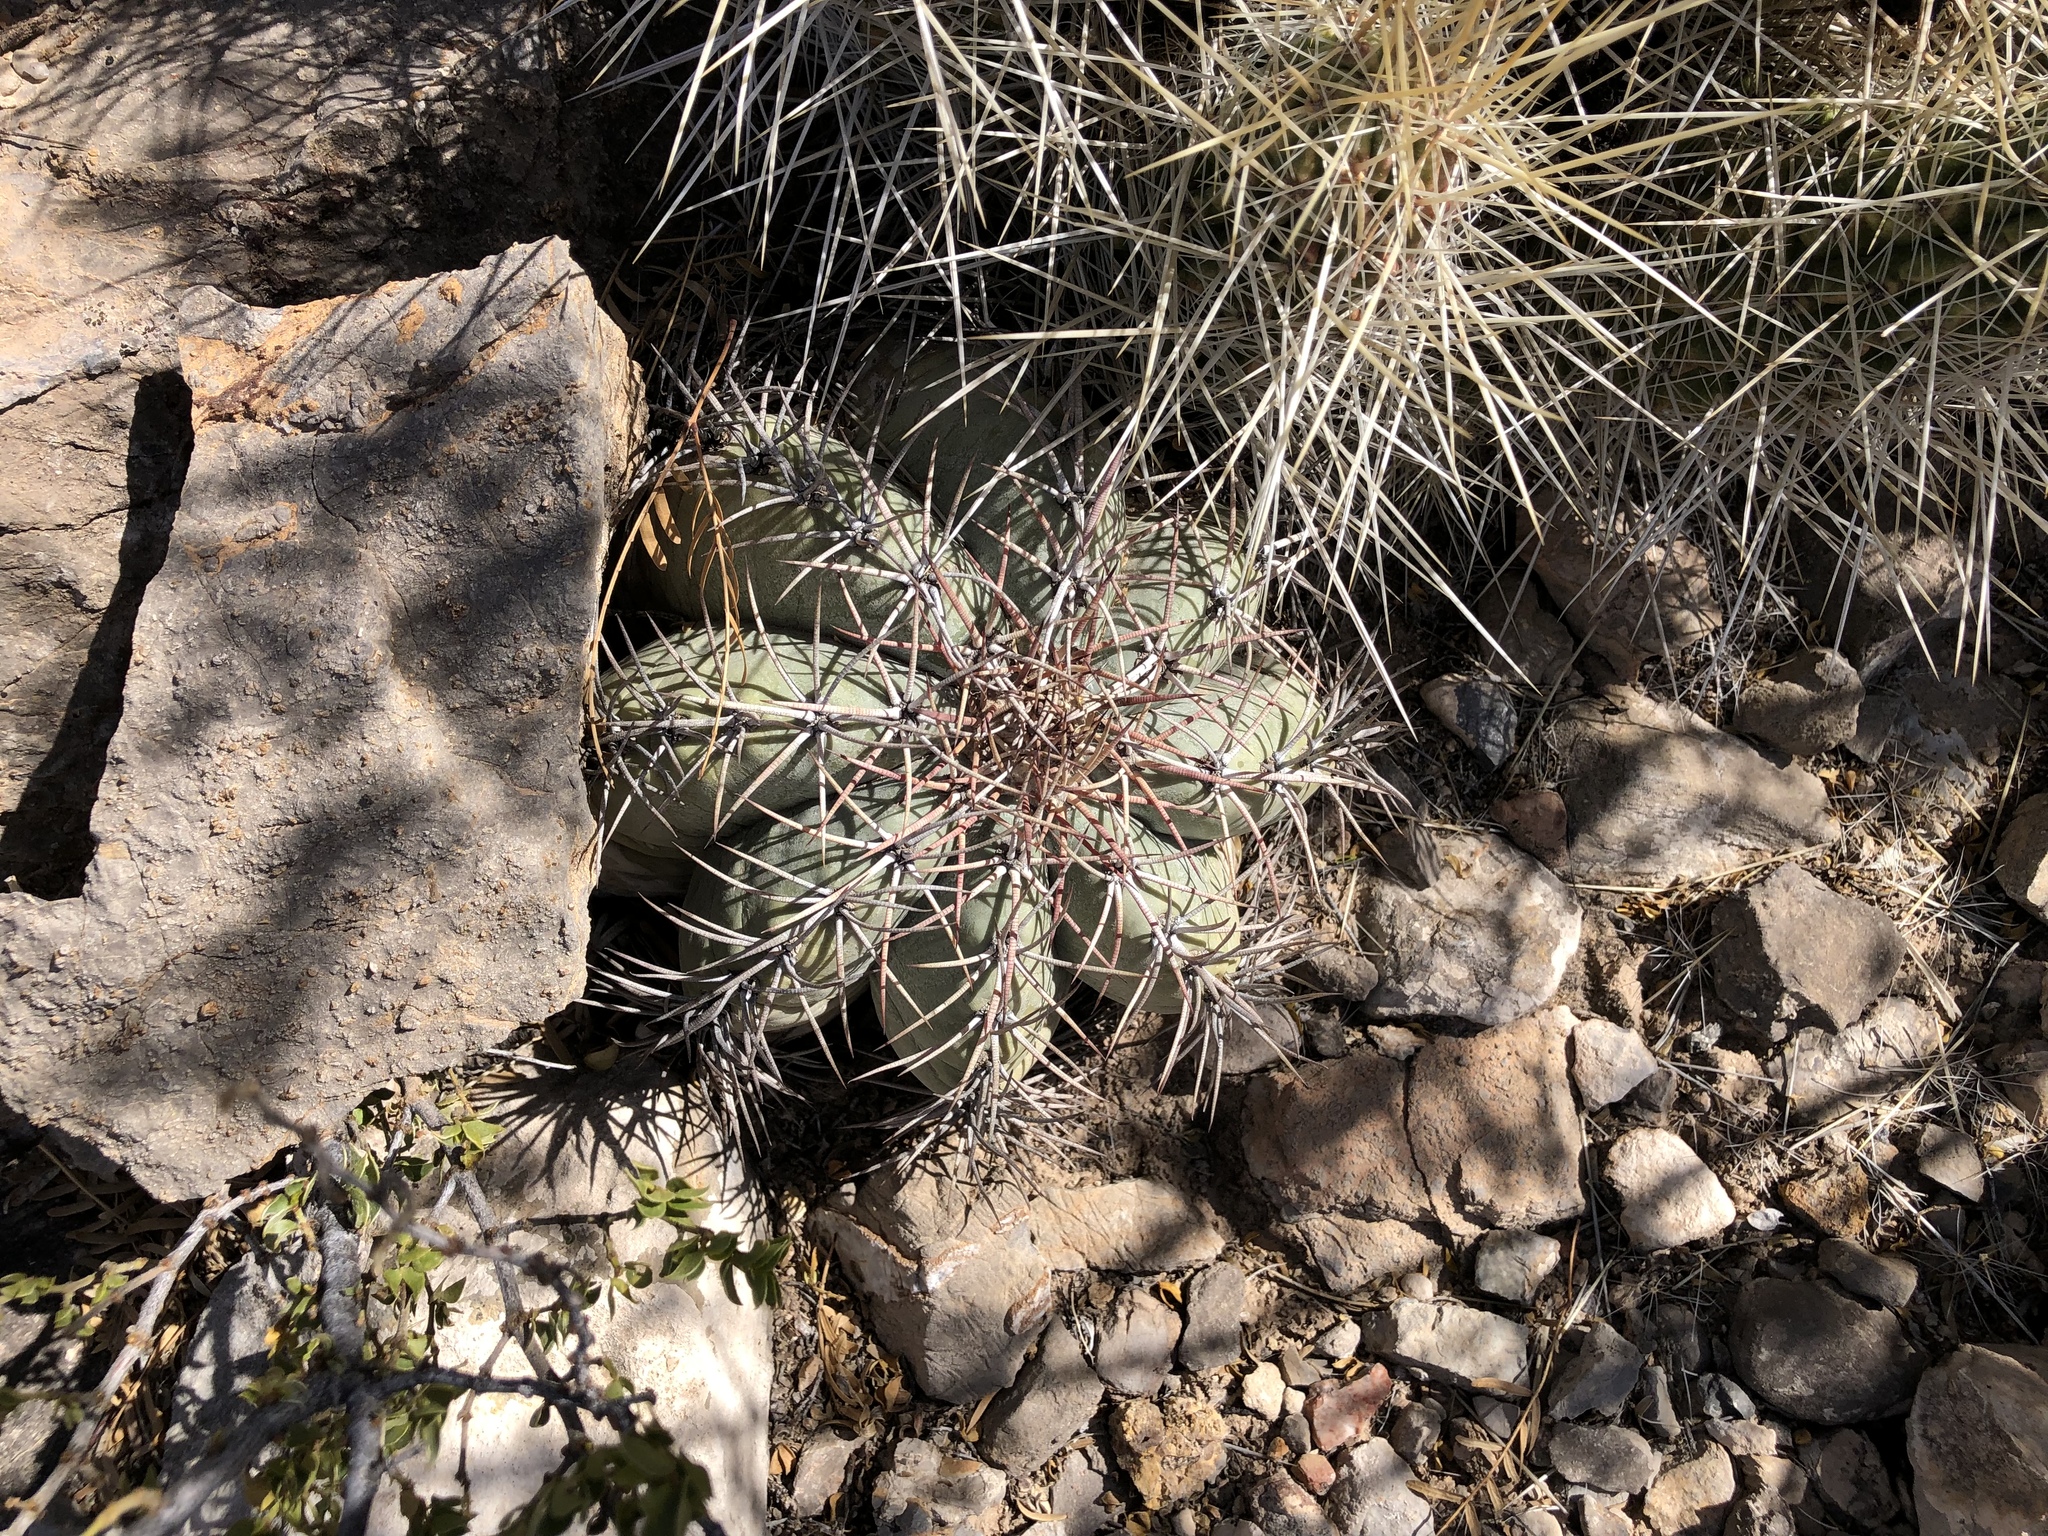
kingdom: Plantae
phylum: Tracheophyta
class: Magnoliopsida
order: Caryophyllales
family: Cactaceae
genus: Echinocactus
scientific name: Echinocactus horizonthalonius
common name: Devilshead
